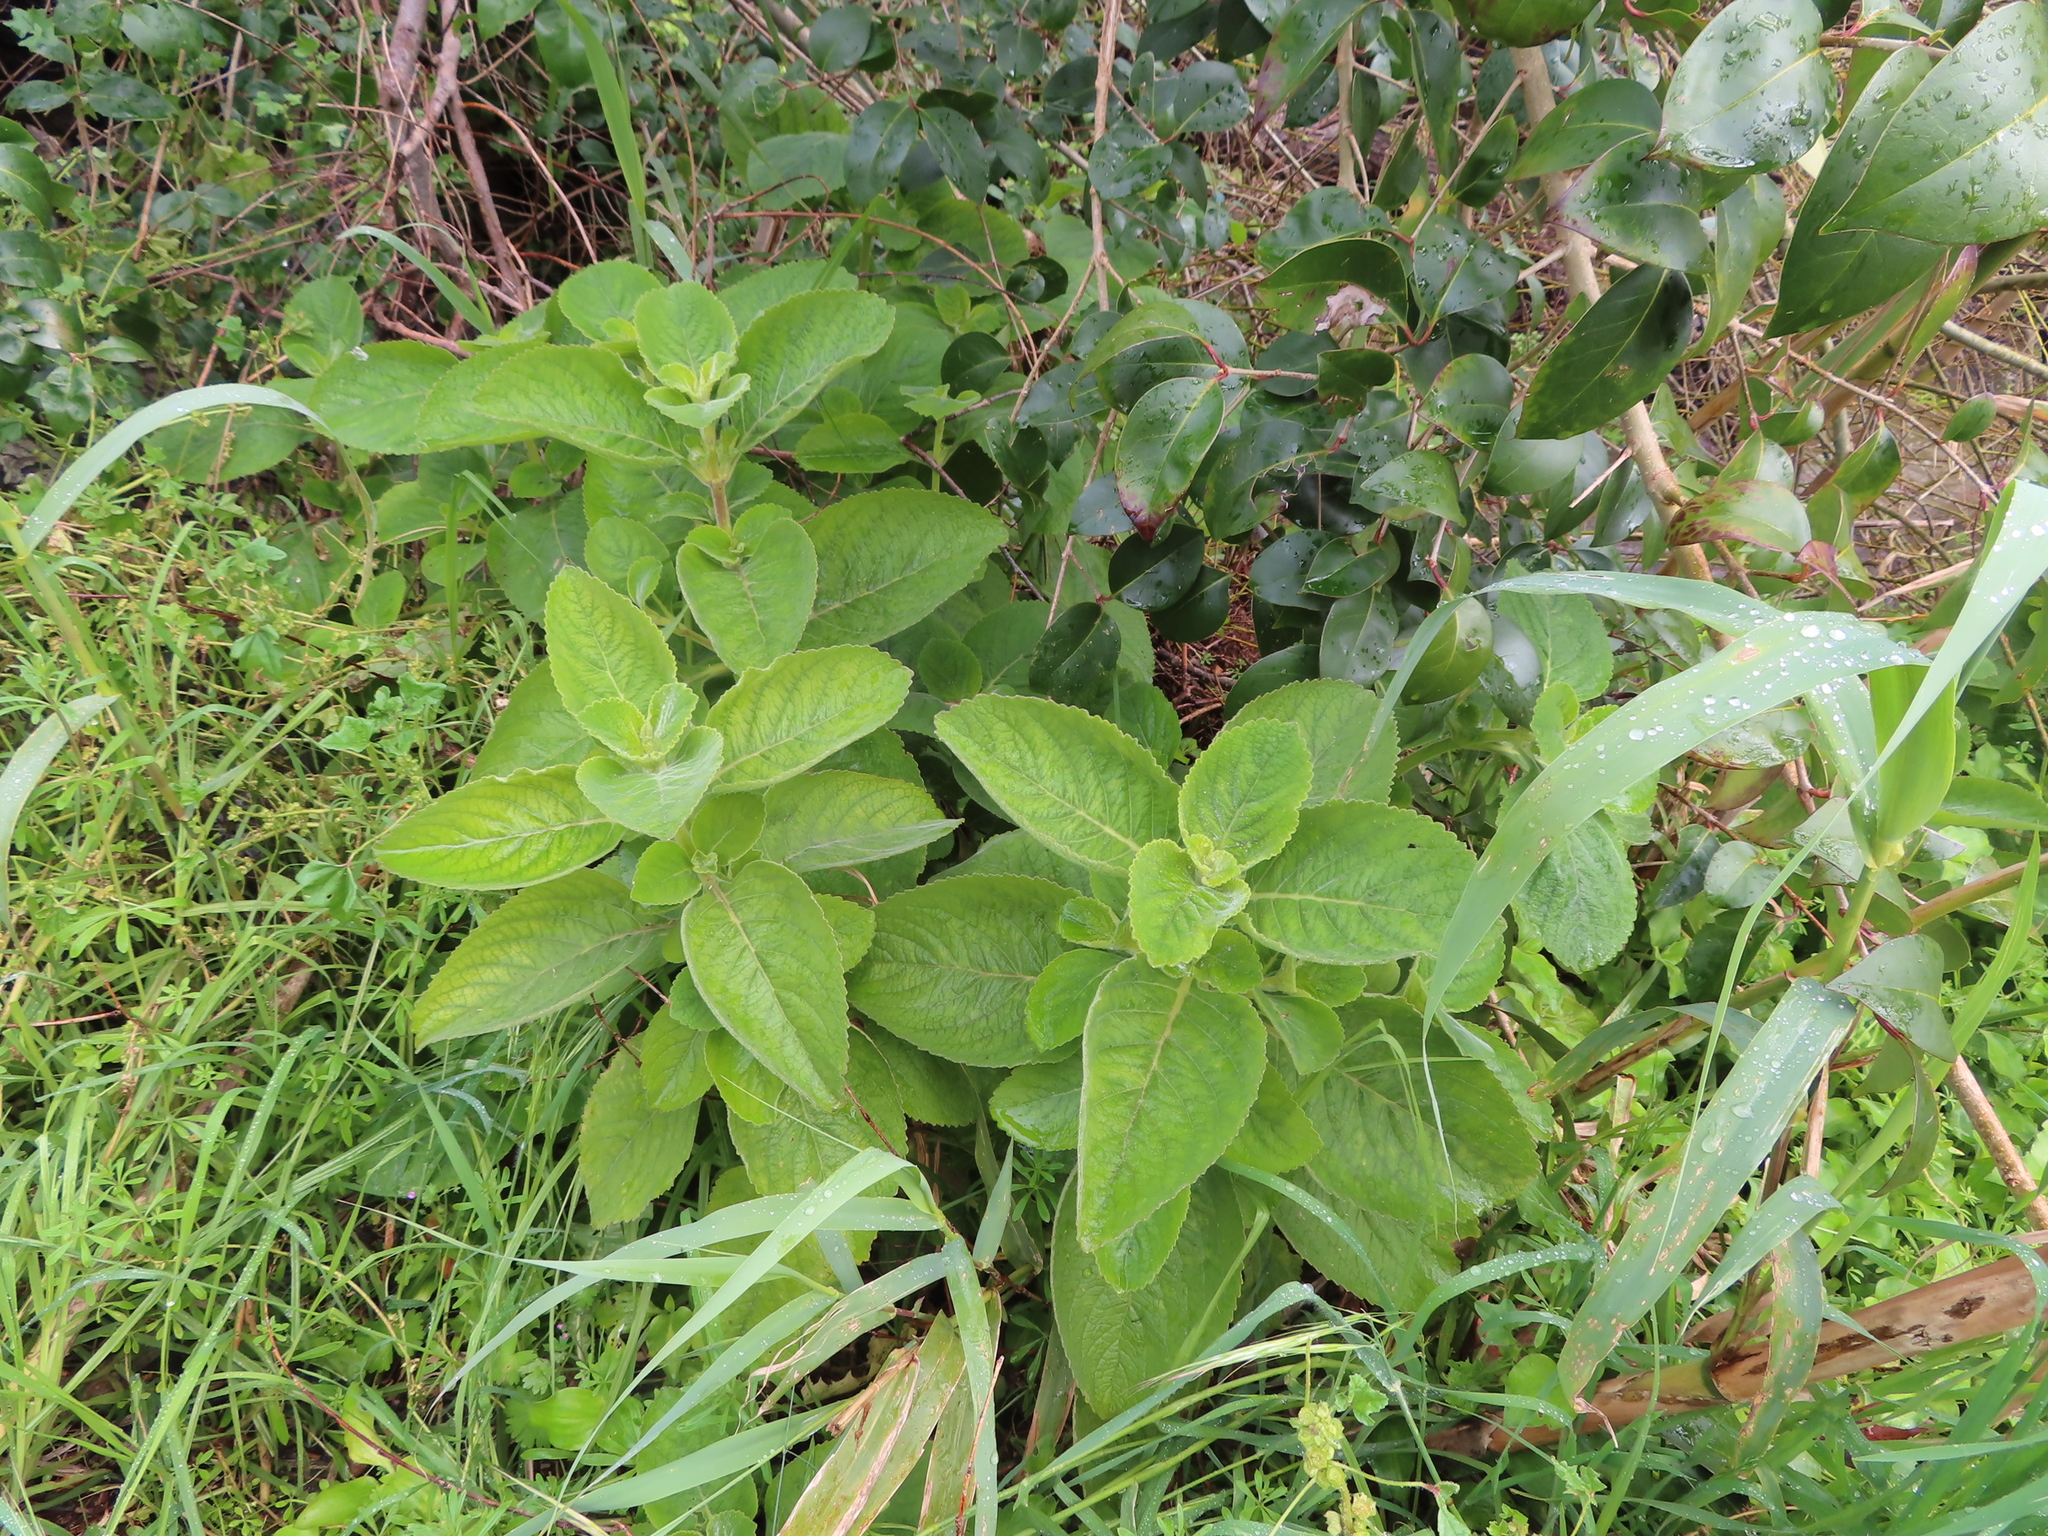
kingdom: Plantae
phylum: Tracheophyta
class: Magnoliopsida
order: Lamiales
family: Lamiaceae
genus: Coleus
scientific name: Coleus barbatus
